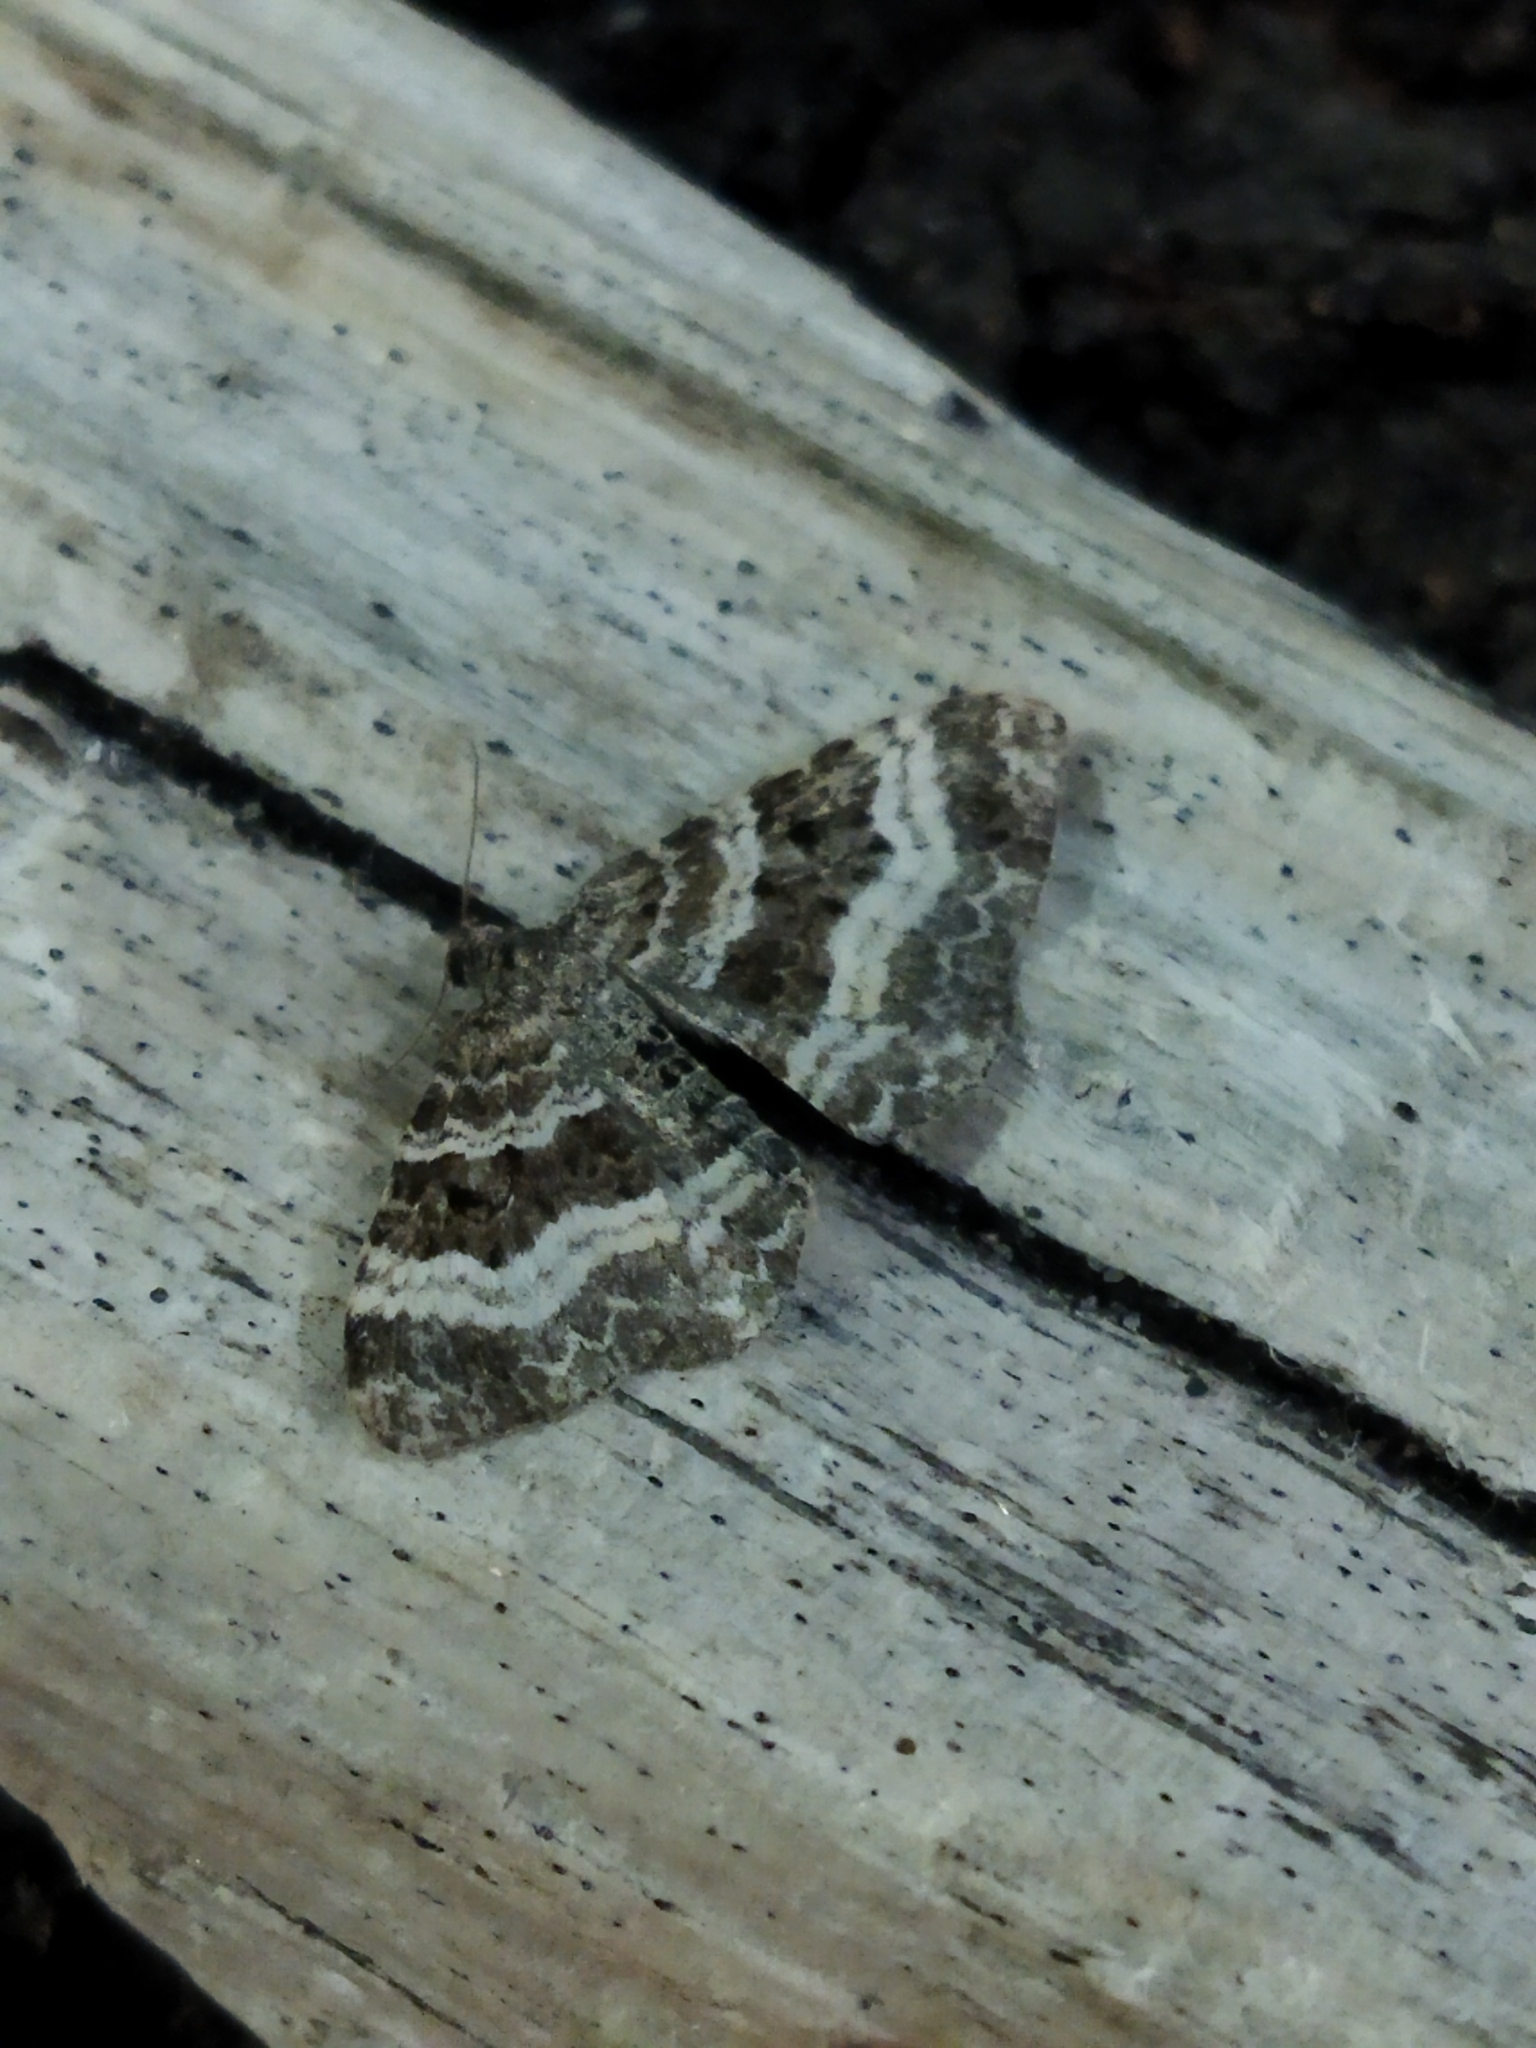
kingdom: Animalia
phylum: Arthropoda
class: Insecta
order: Lepidoptera
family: Geometridae
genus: Epirrhoe
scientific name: Epirrhoe alternata
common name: Common carpet
